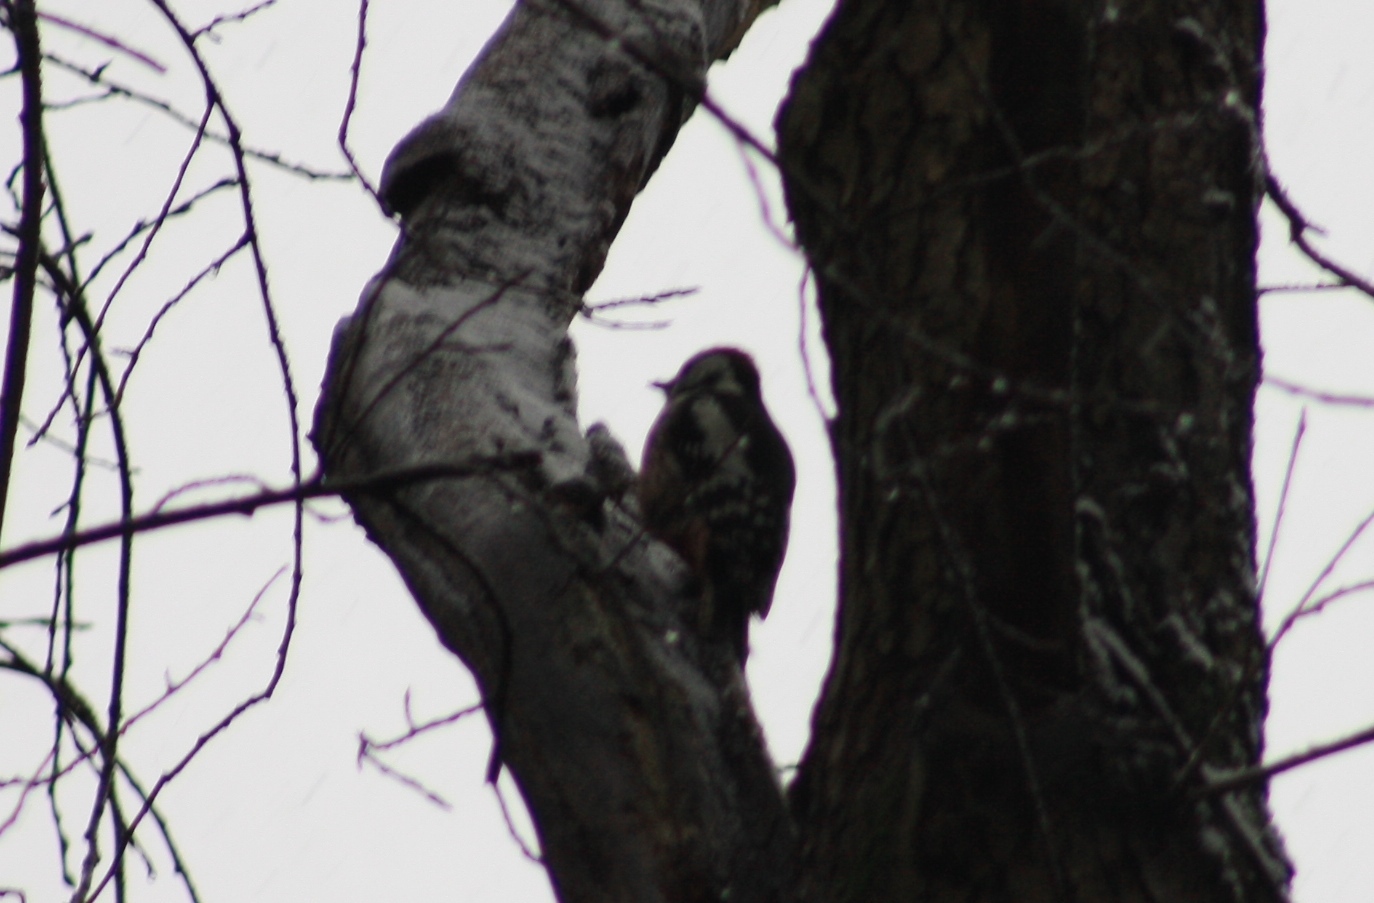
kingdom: Animalia
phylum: Chordata
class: Aves
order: Piciformes
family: Picidae
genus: Dendrocoptes
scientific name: Dendrocoptes medius
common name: Middle spotted woodpecker
